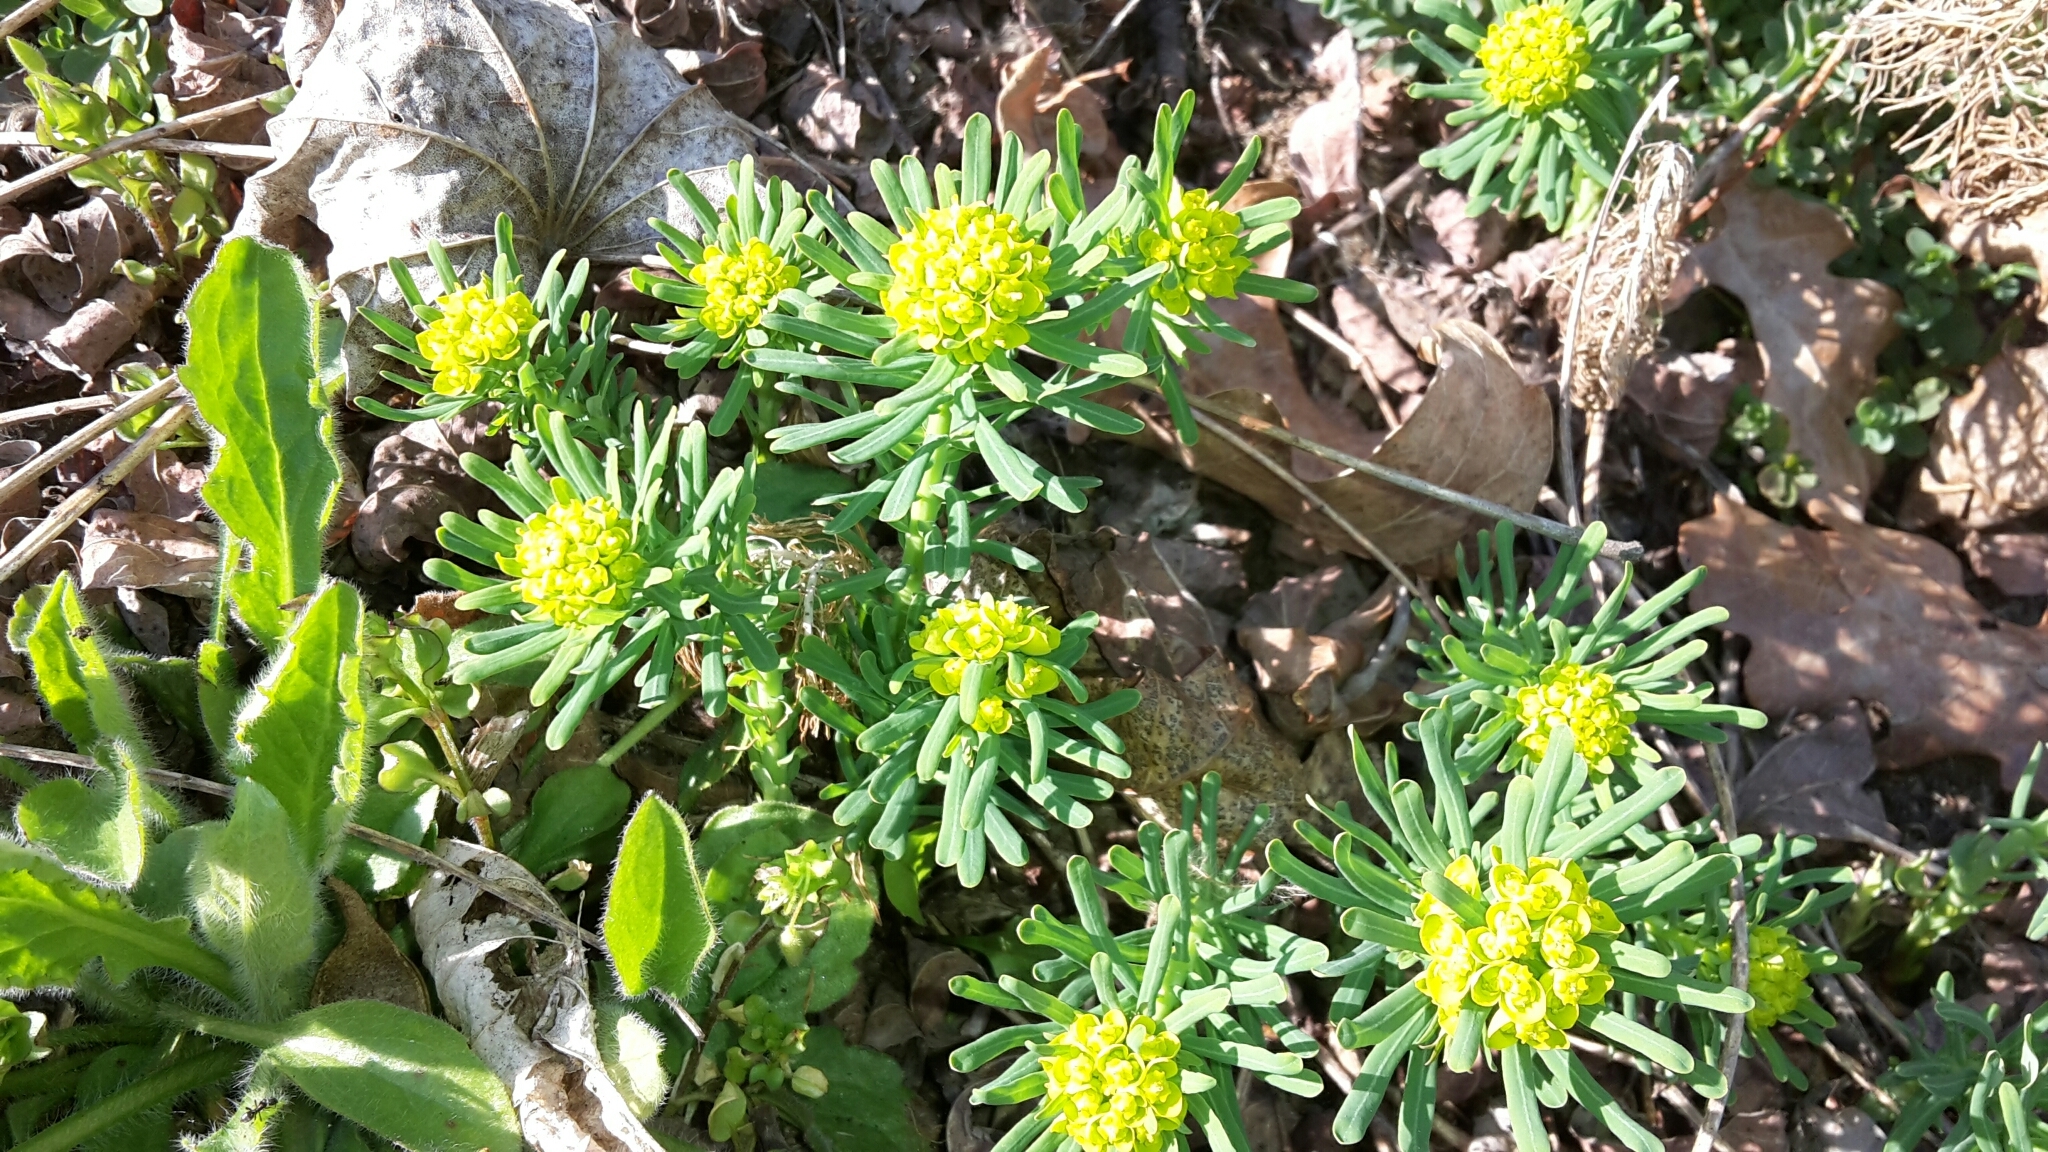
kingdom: Plantae
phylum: Tracheophyta
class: Magnoliopsida
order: Malpighiales
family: Euphorbiaceae
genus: Euphorbia
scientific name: Euphorbia cyparissias
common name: Cypress spurge
